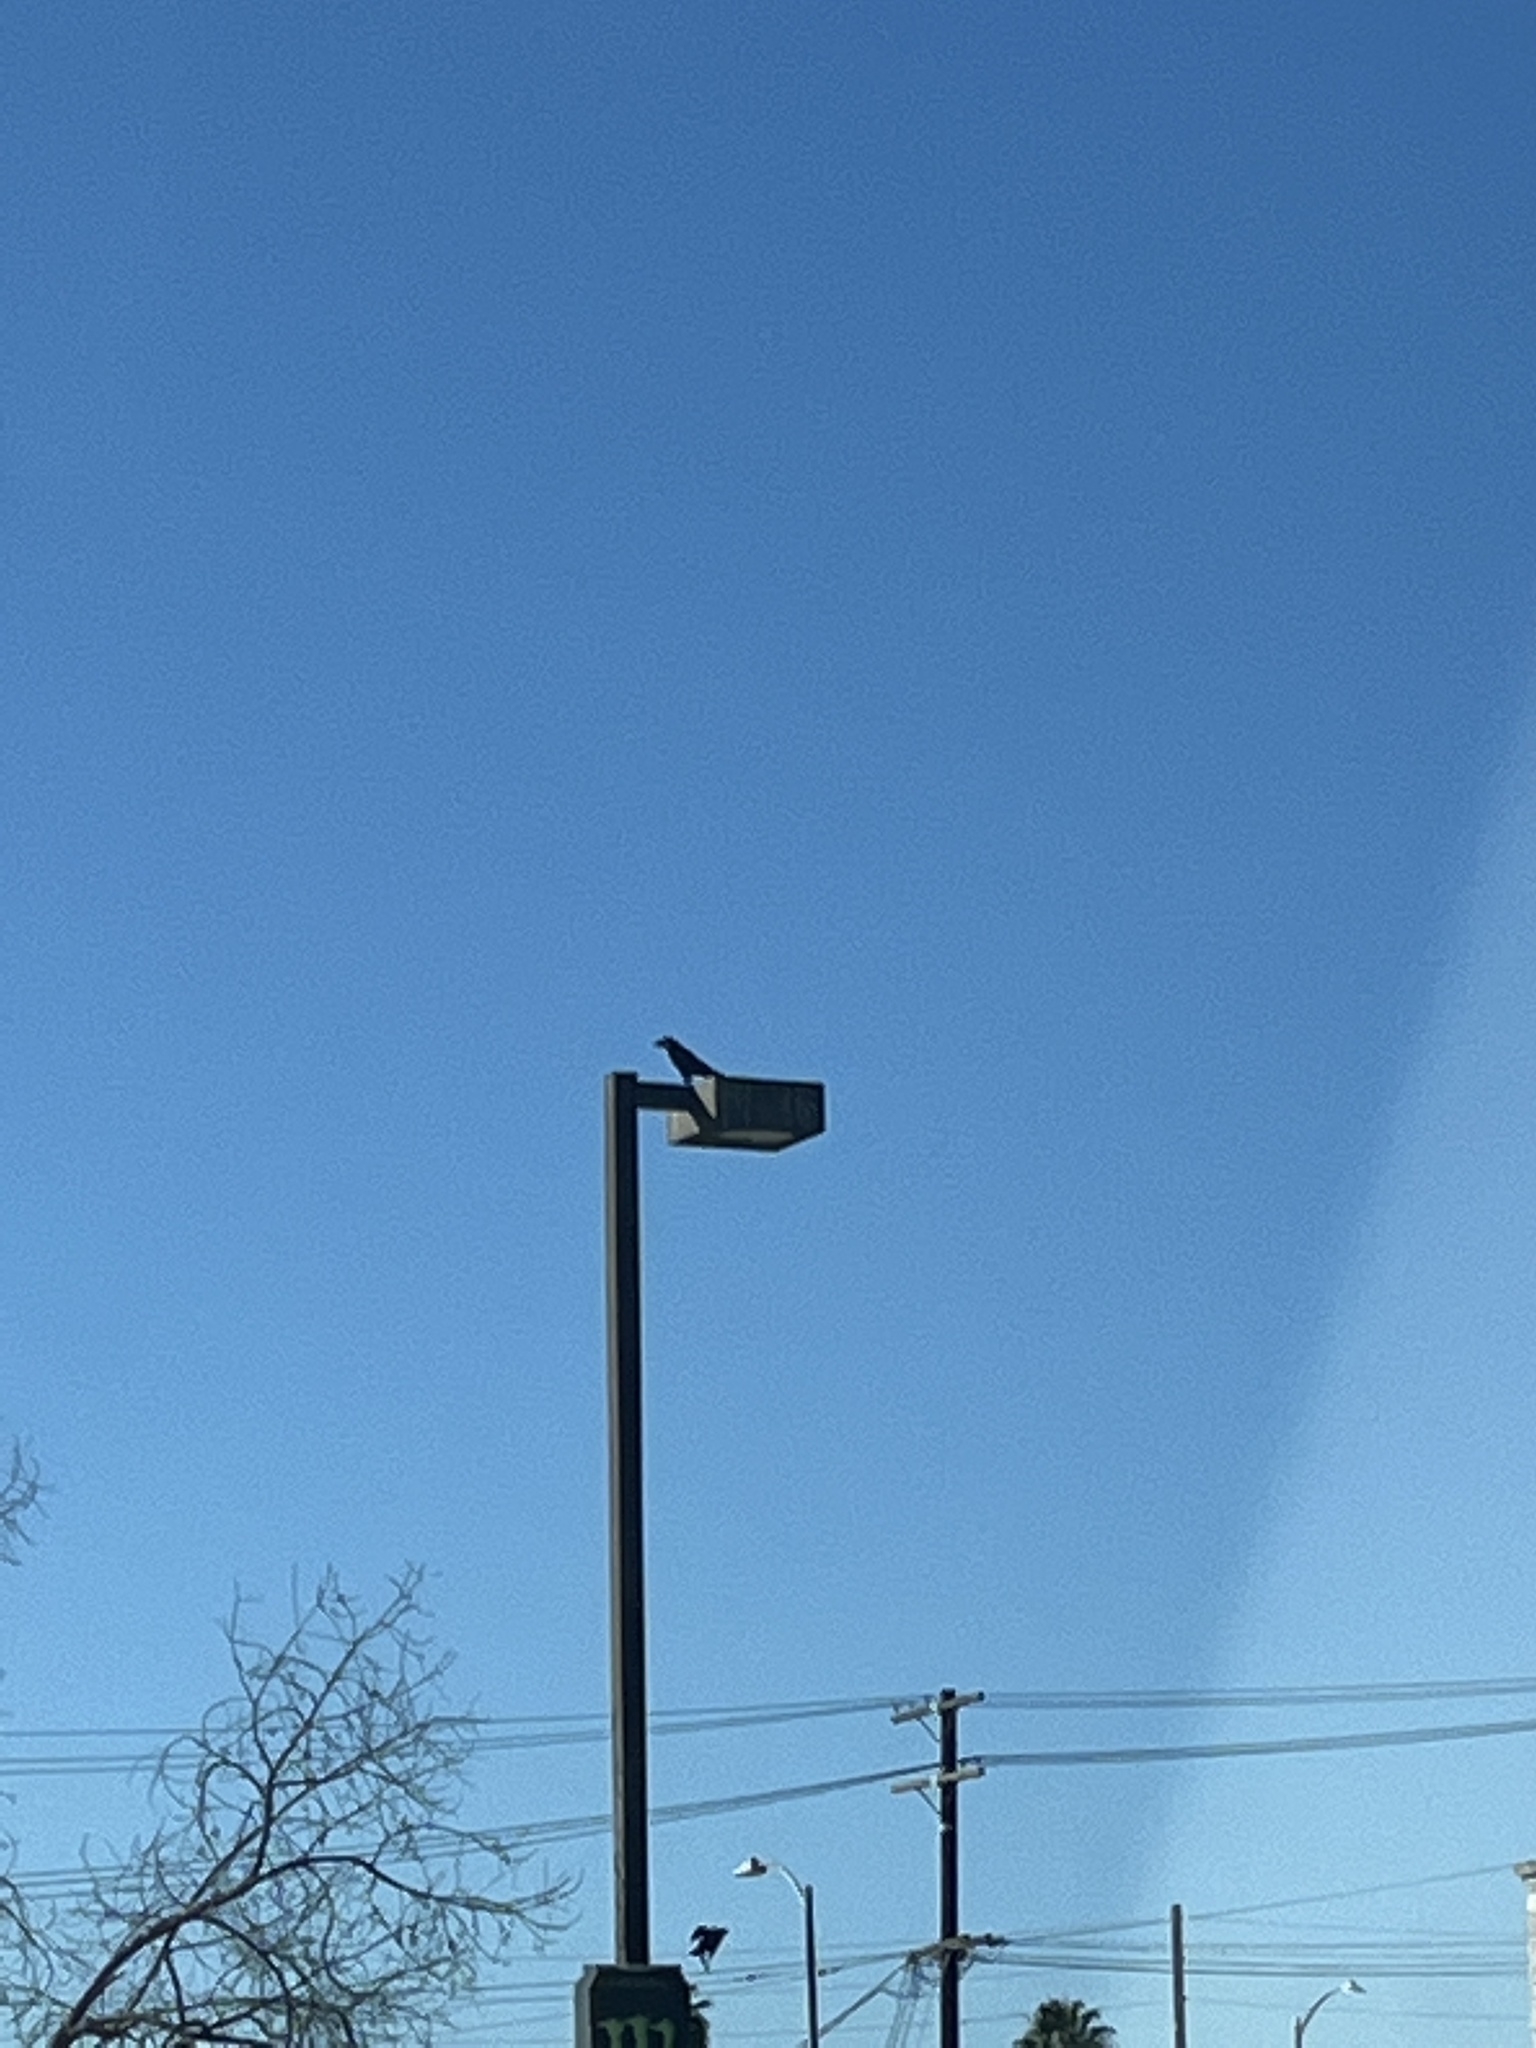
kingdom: Animalia
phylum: Chordata
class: Aves
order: Passeriformes
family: Corvidae
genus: Corvus
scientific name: Corvus brachyrhynchos
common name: American crow
